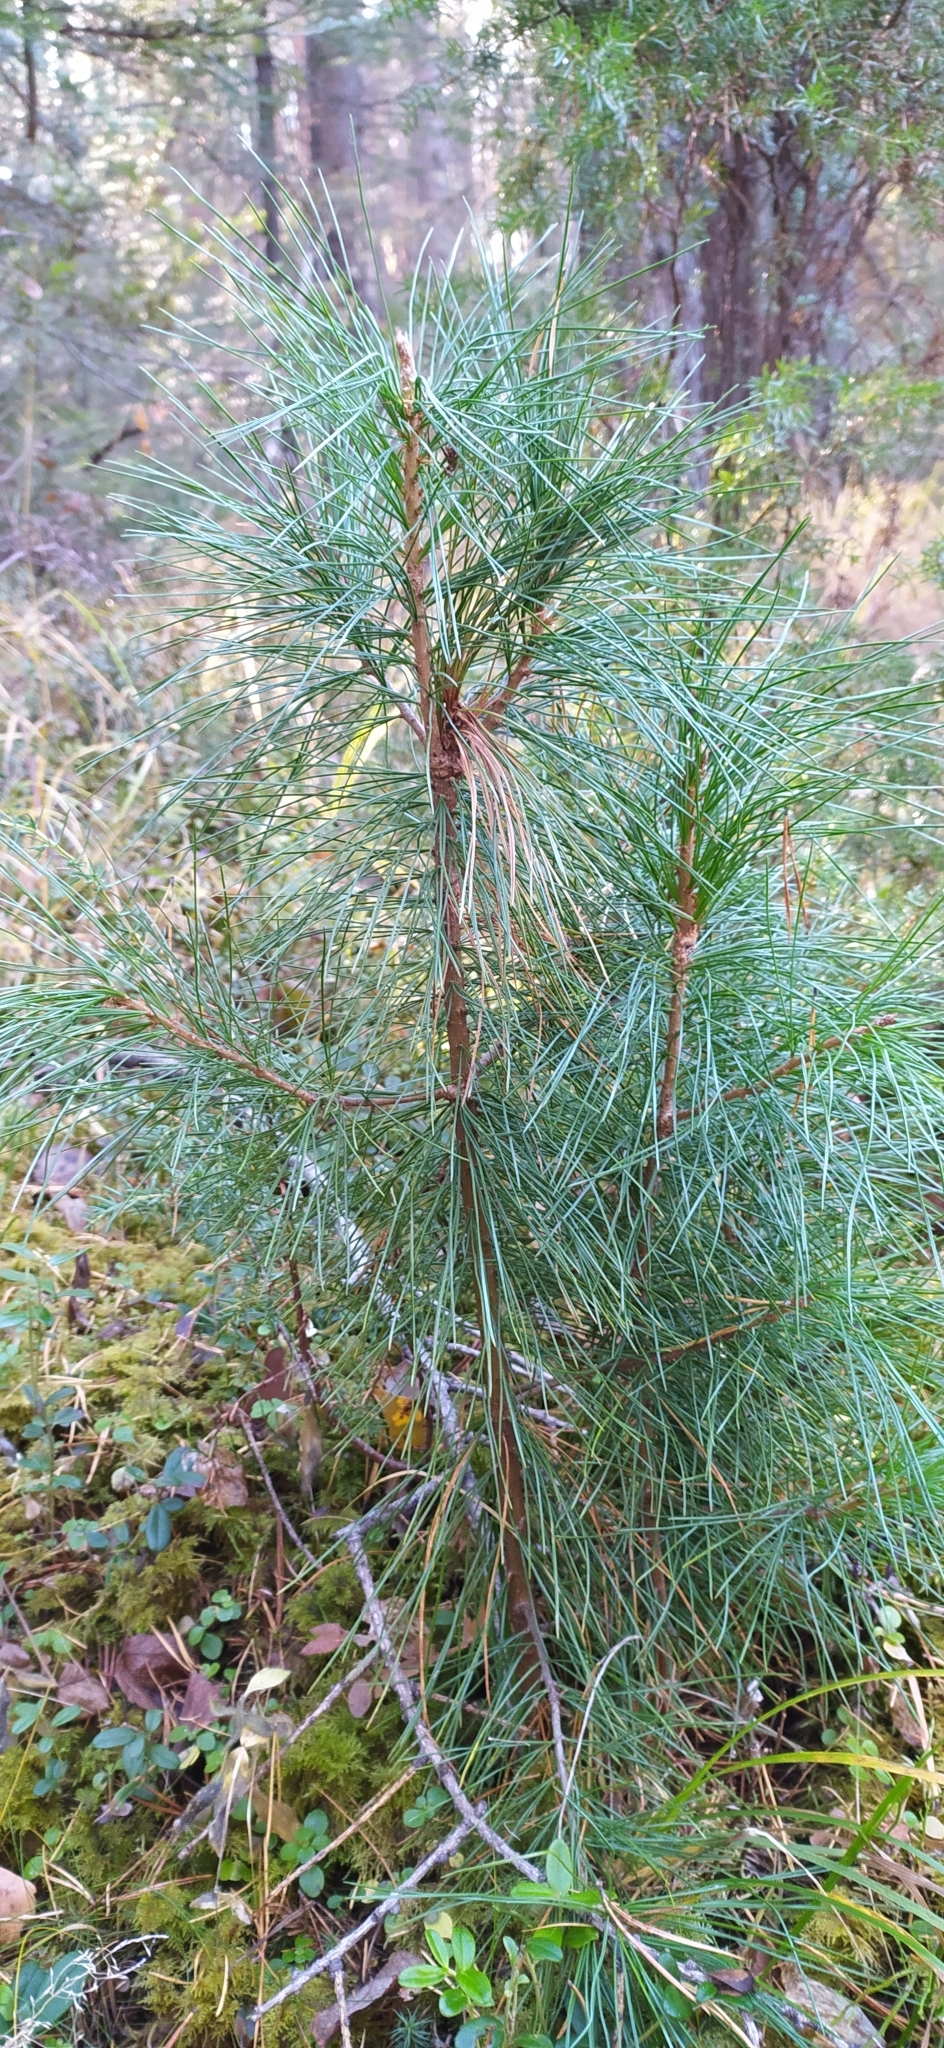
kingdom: Plantae
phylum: Tracheophyta
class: Pinopsida
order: Pinales
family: Pinaceae
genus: Pinus
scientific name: Pinus sibirica
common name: Siberian pine
